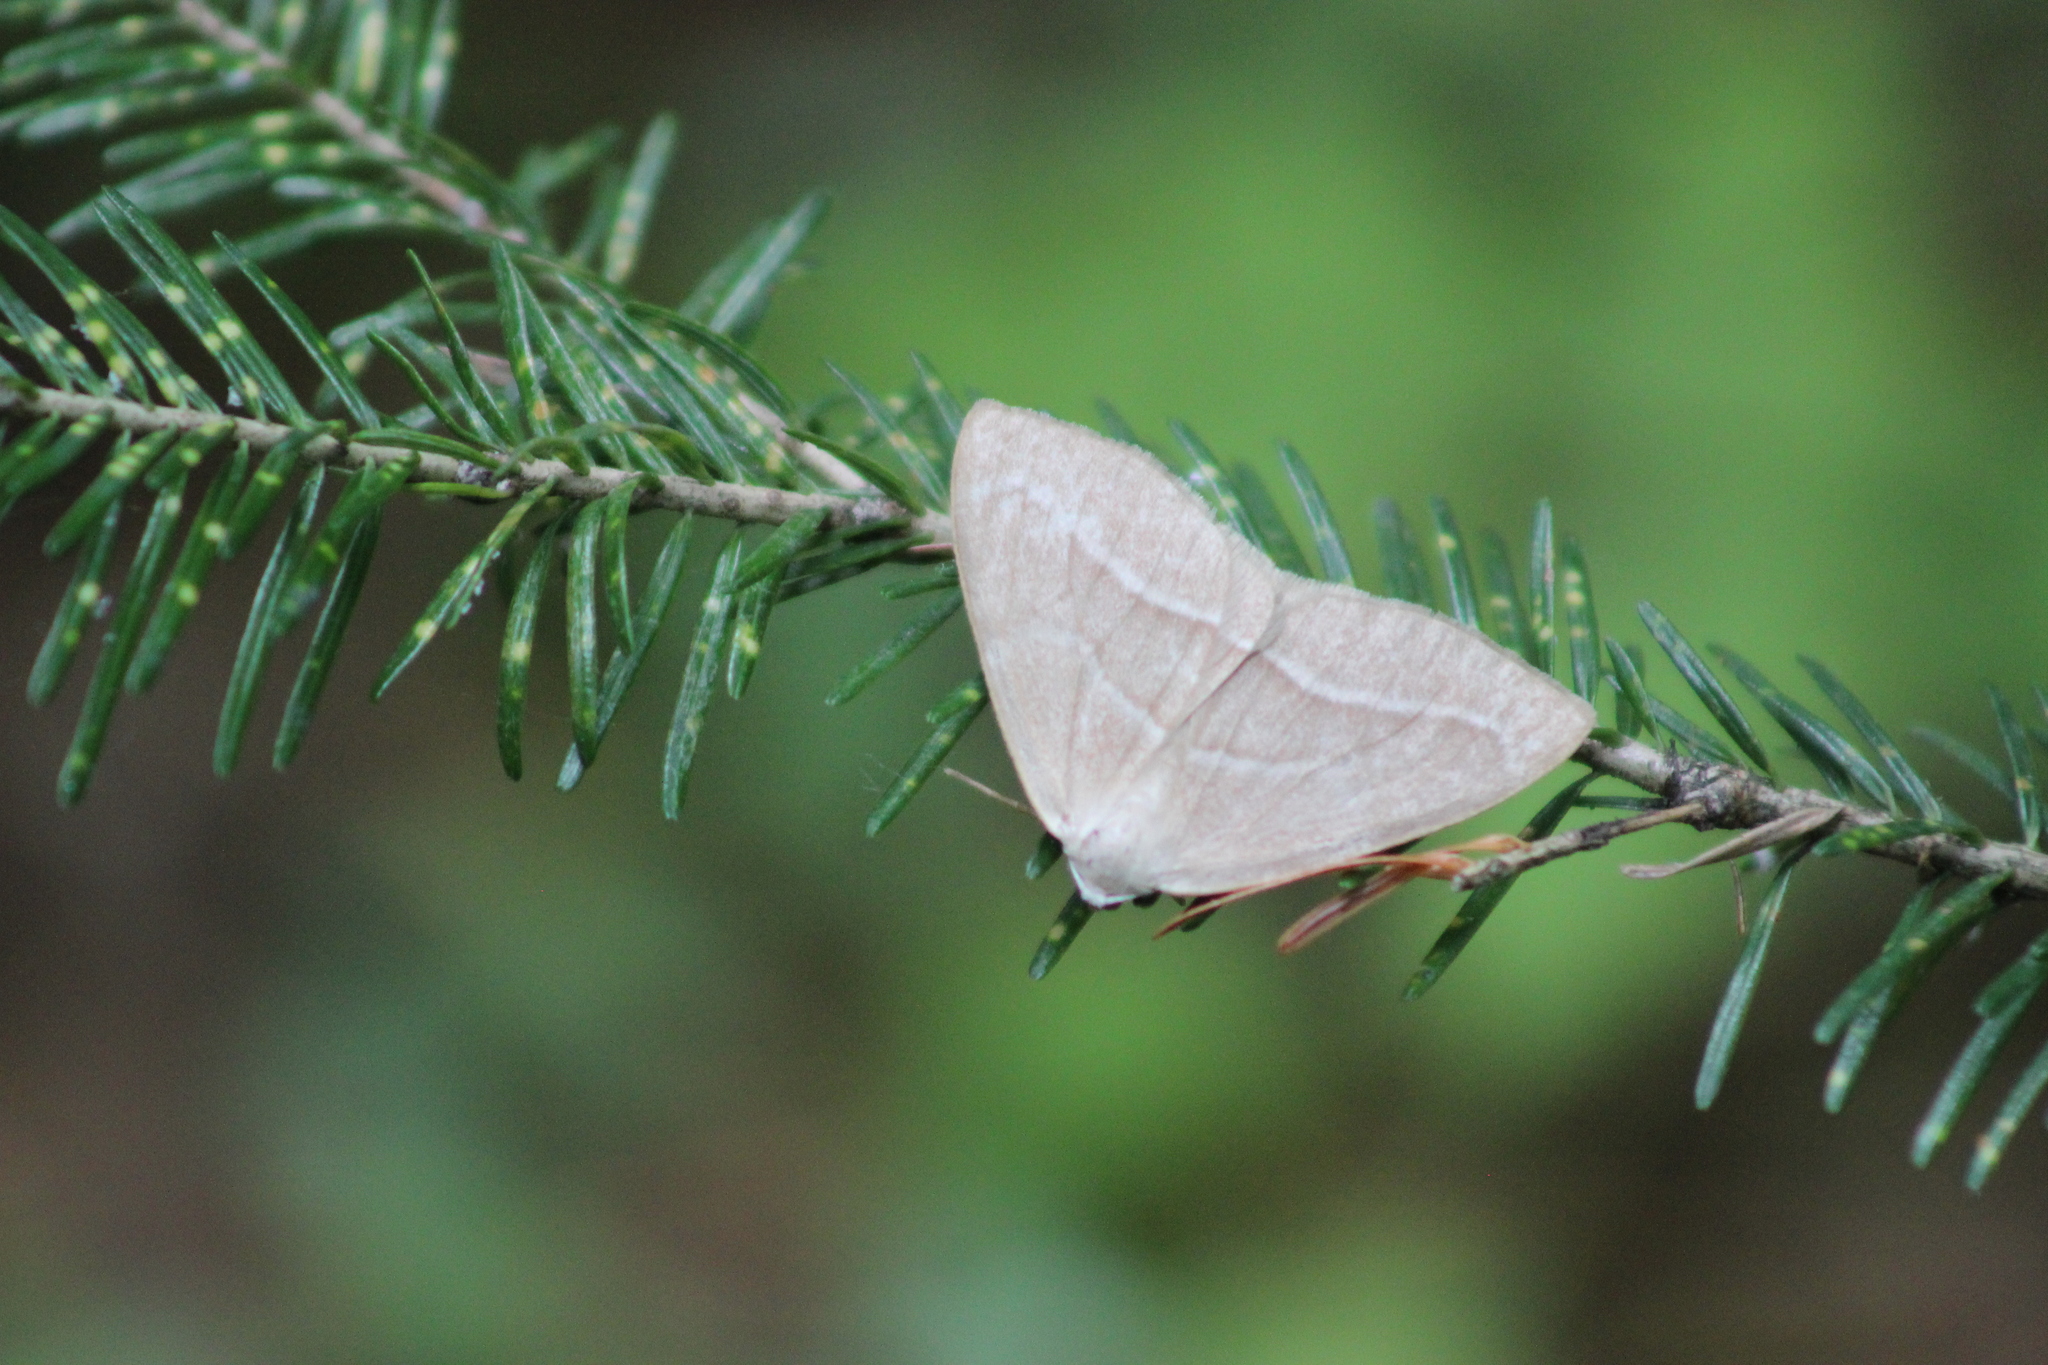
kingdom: Animalia
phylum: Arthropoda
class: Insecta
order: Lepidoptera
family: Geometridae
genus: Hylaea
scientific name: Hylaea fasciaria
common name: Barred red
